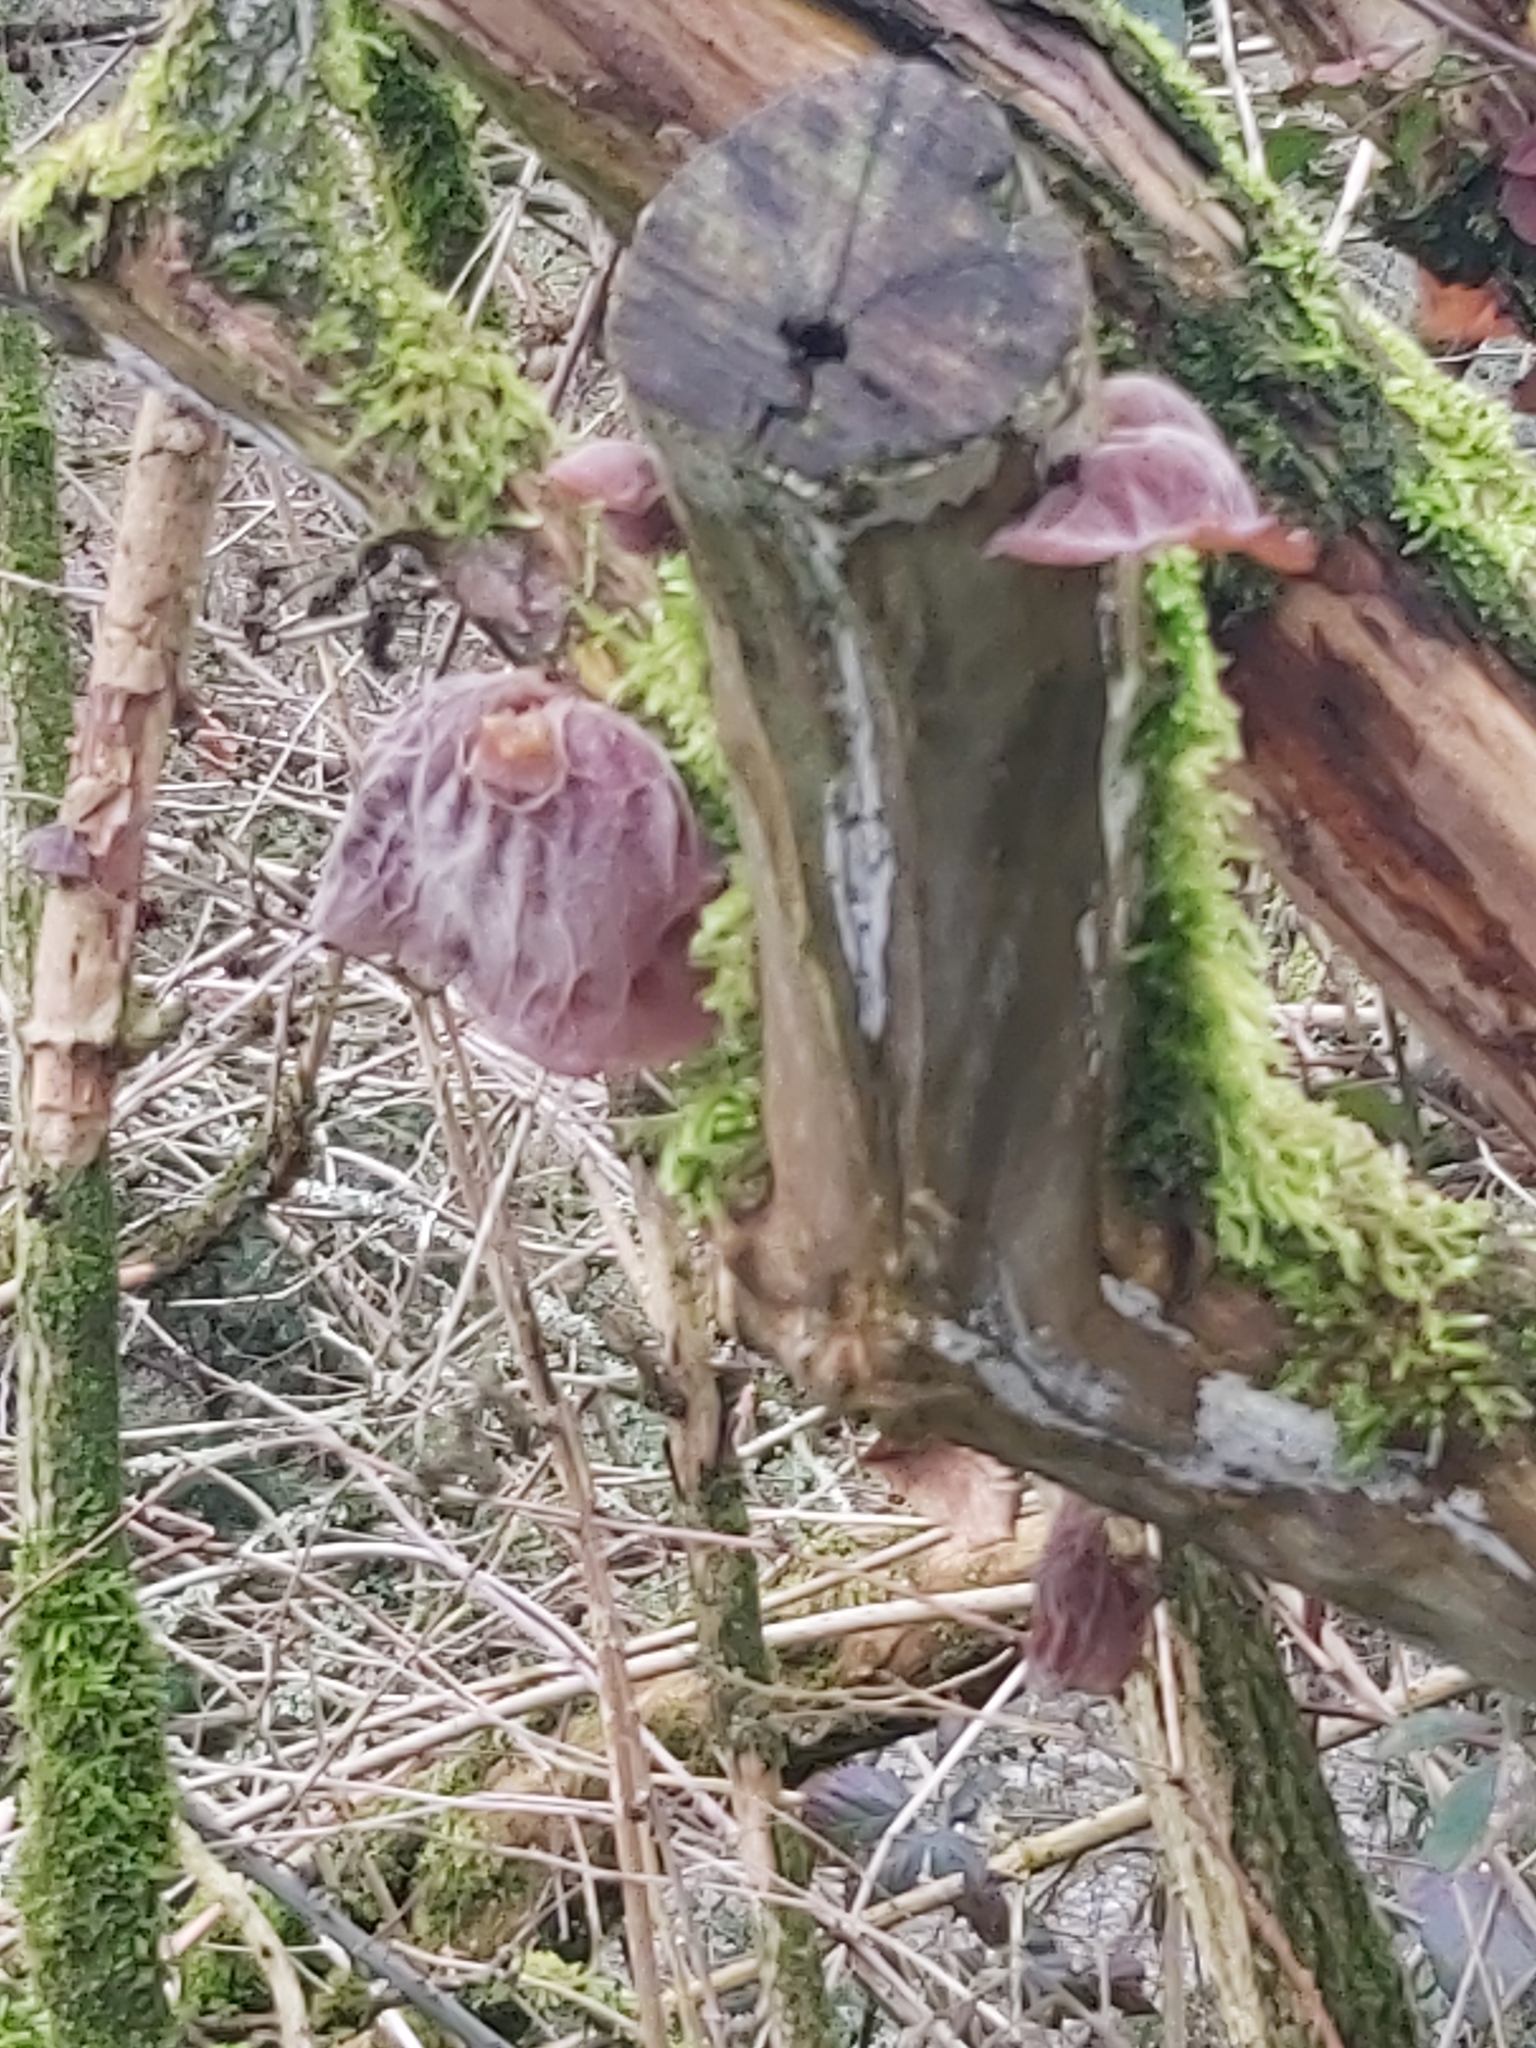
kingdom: Fungi
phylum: Basidiomycota
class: Agaricomycetes
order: Auriculariales
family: Auriculariaceae
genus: Auricularia
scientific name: Auricularia auricula-judae
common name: Jelly ear
